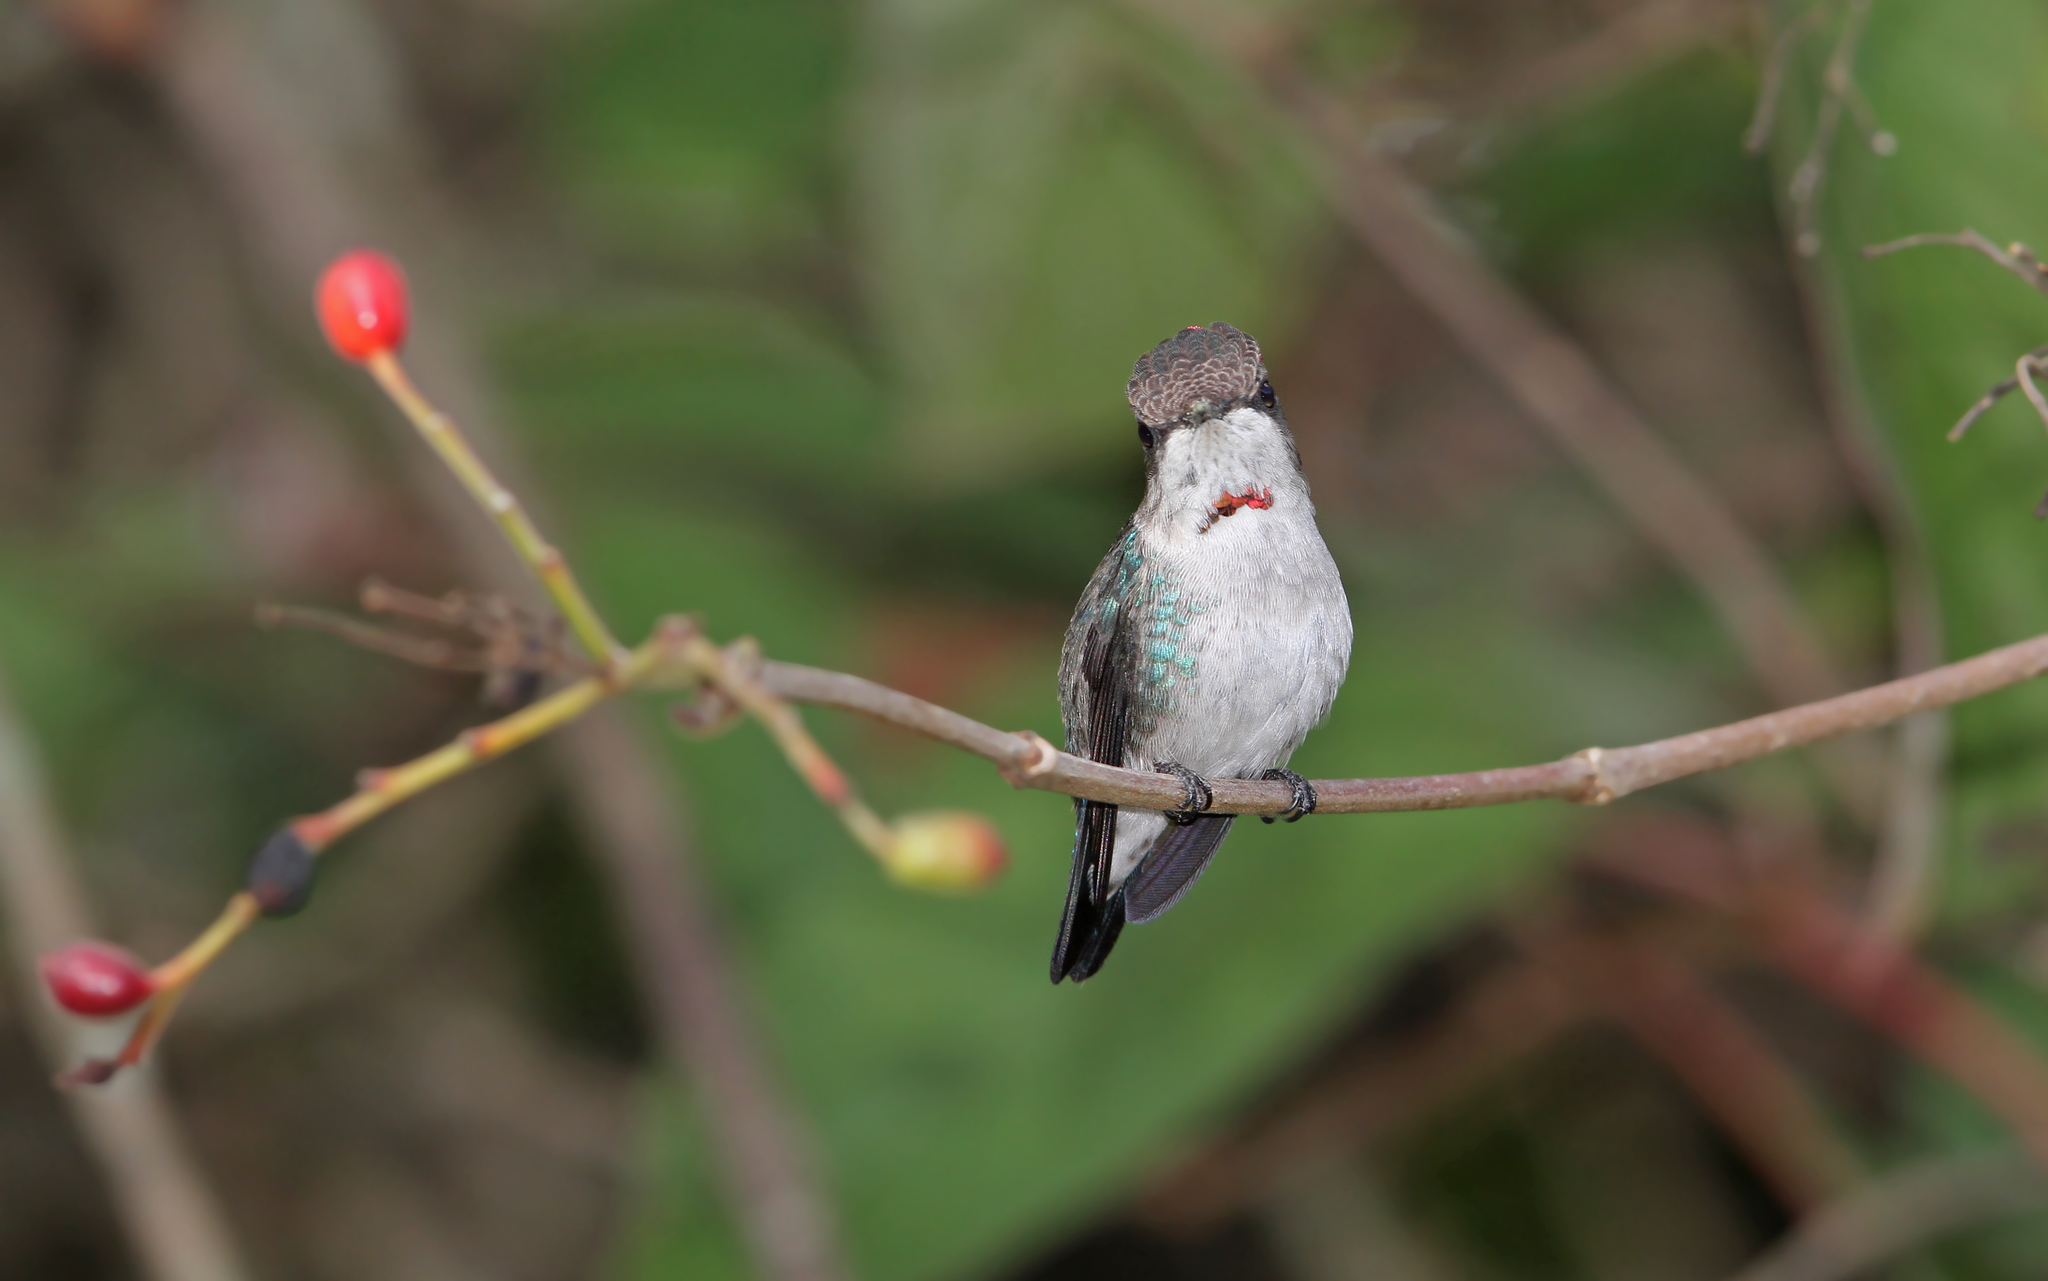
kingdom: Animalia
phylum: Chordata
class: Aves
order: Apodiformes
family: Trochilidae
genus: Mellisuga
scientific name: Mellisuga helenae
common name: Bee hummingbird
